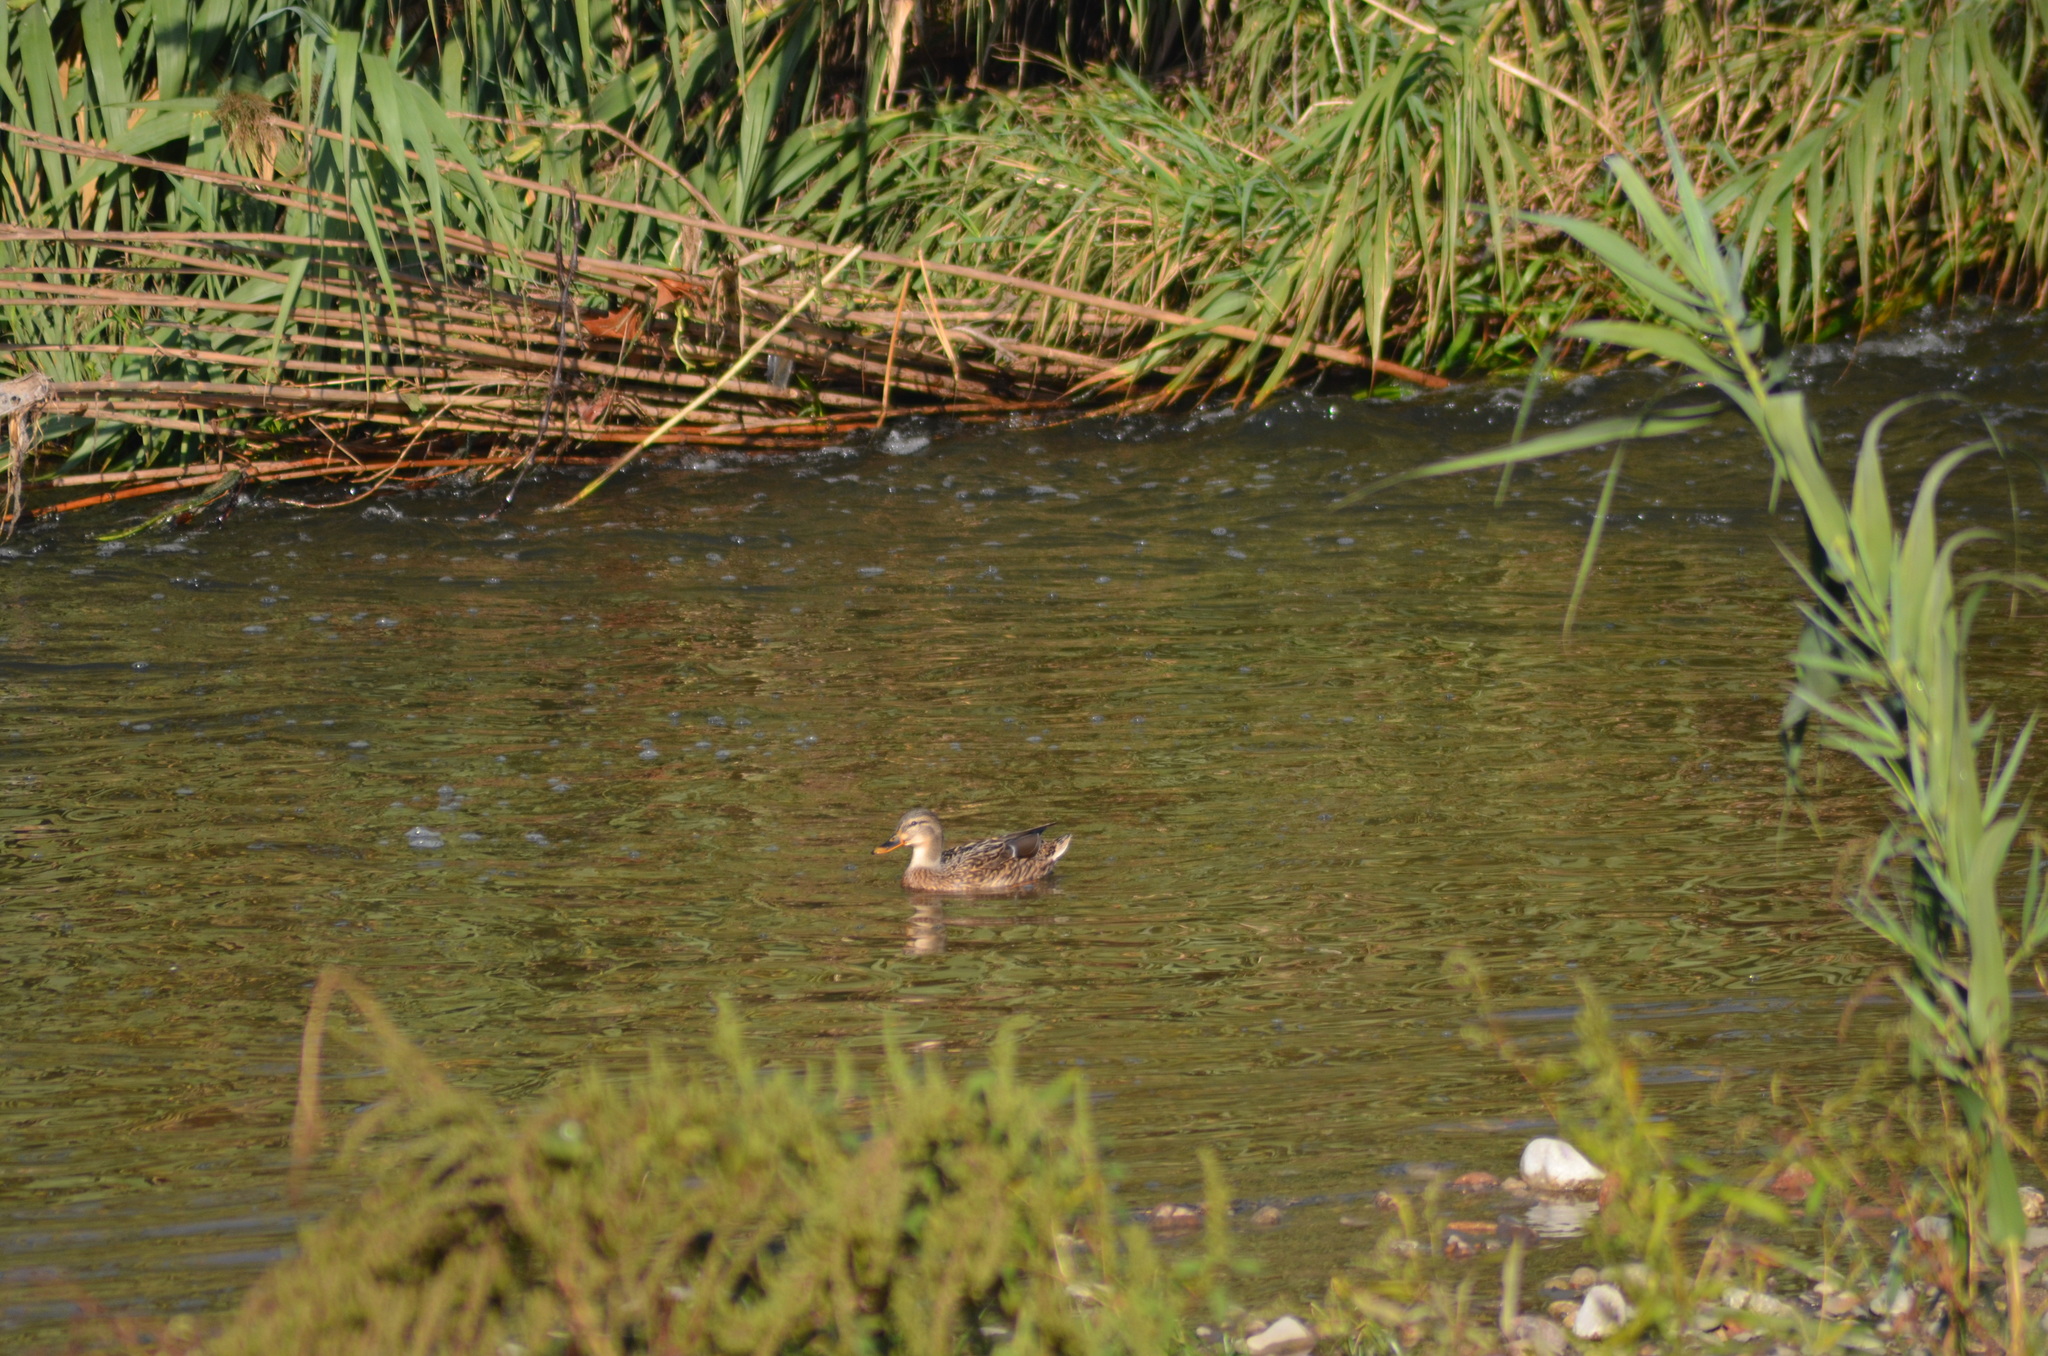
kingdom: Animalia
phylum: Chordata
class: Aves
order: Anseriformes
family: Anatidae
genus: Anas
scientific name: Anas platyrhynchos
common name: Mallard
